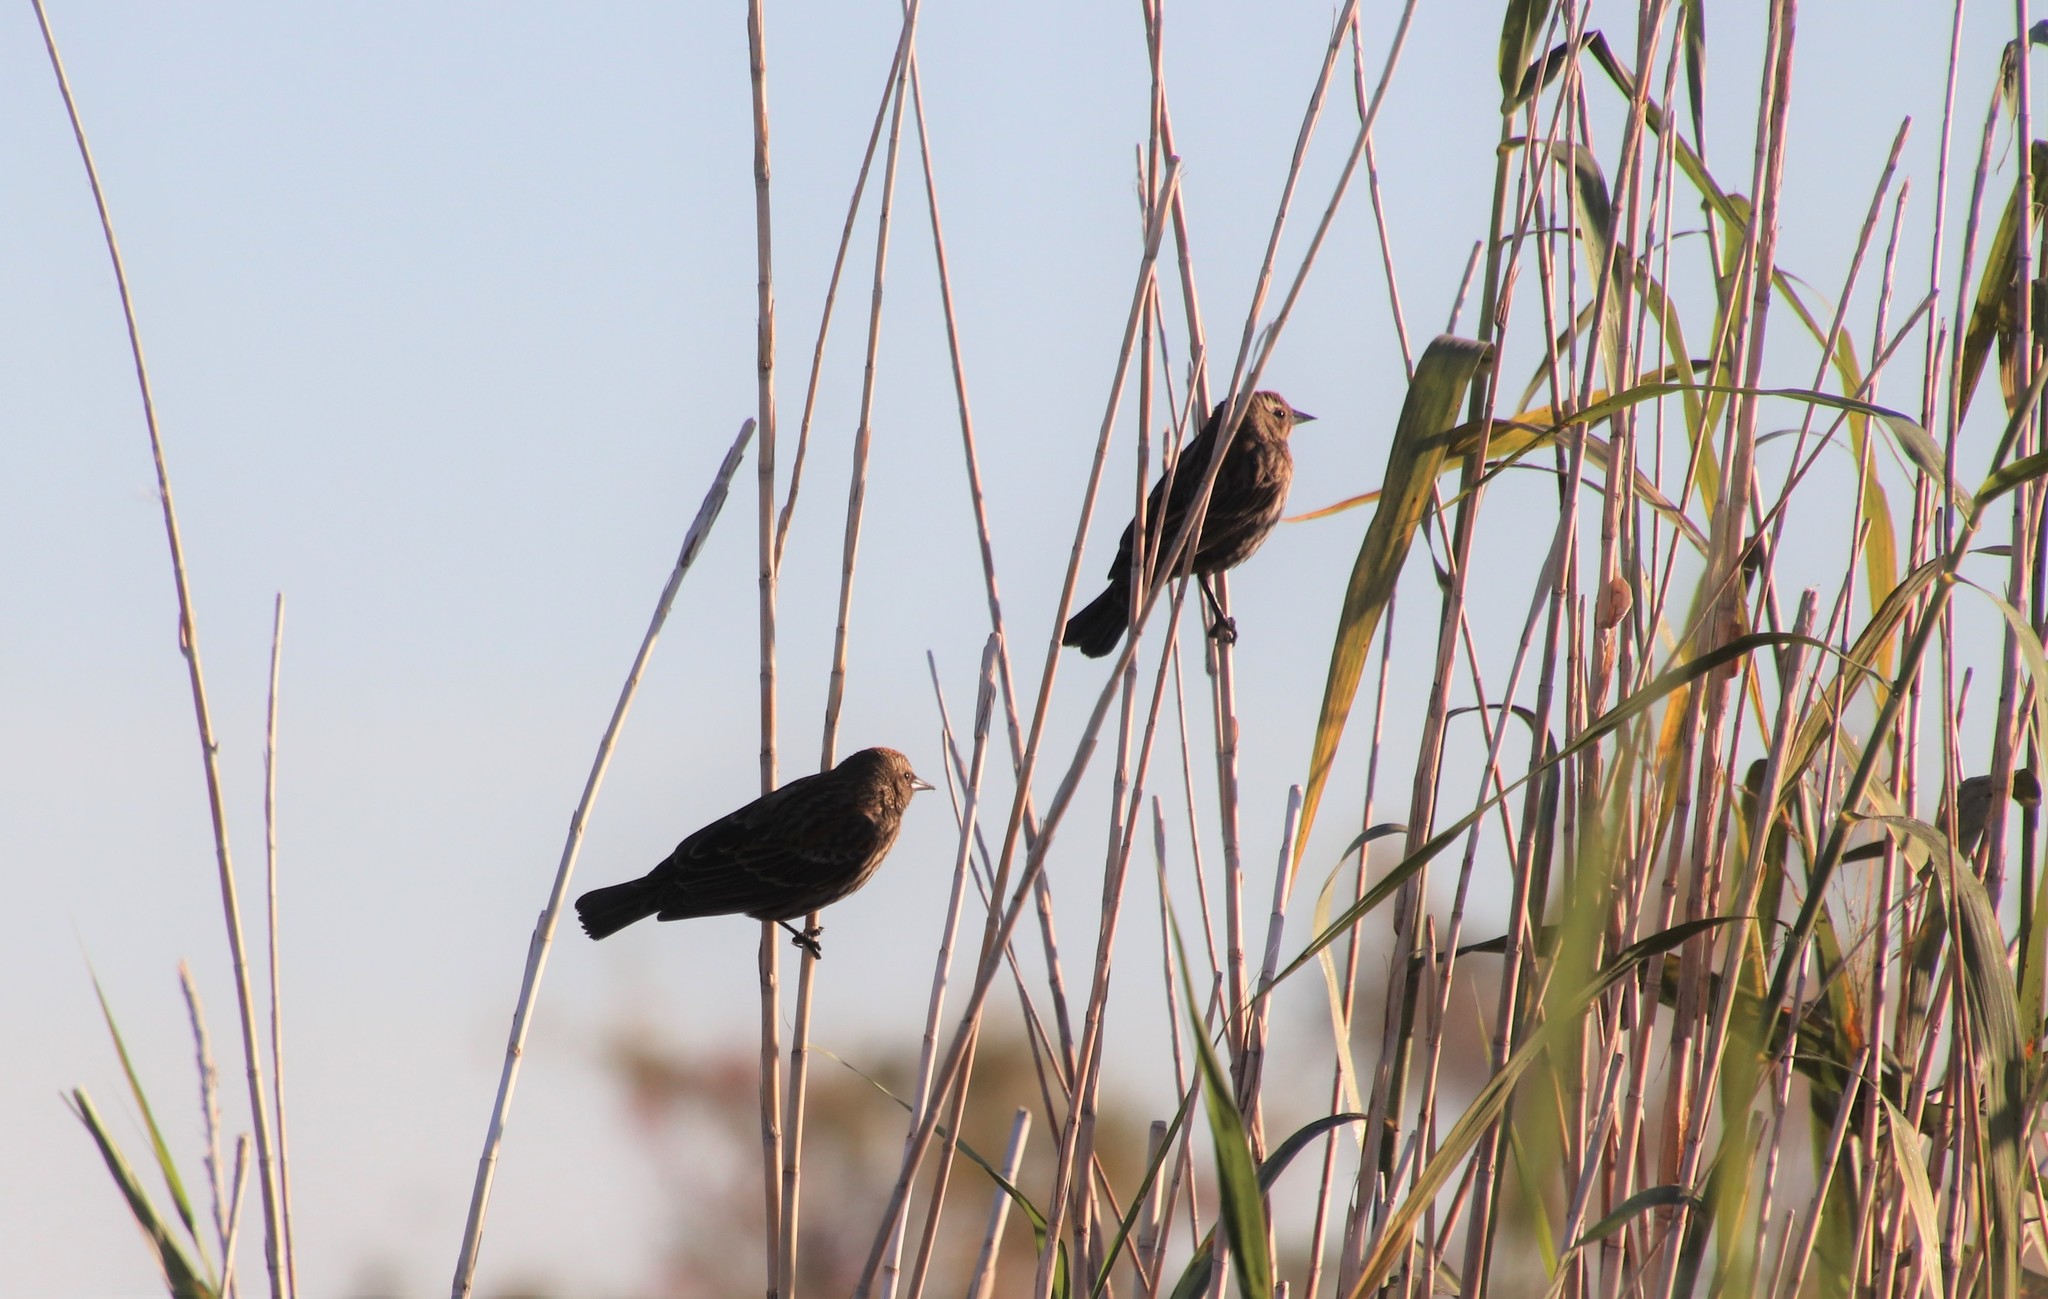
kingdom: Animalia
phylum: Chordata
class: Aves
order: Passeriformes
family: Icteridae
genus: Agelaius
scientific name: Agelaius phoeniceus
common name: Red-winged blackbird
